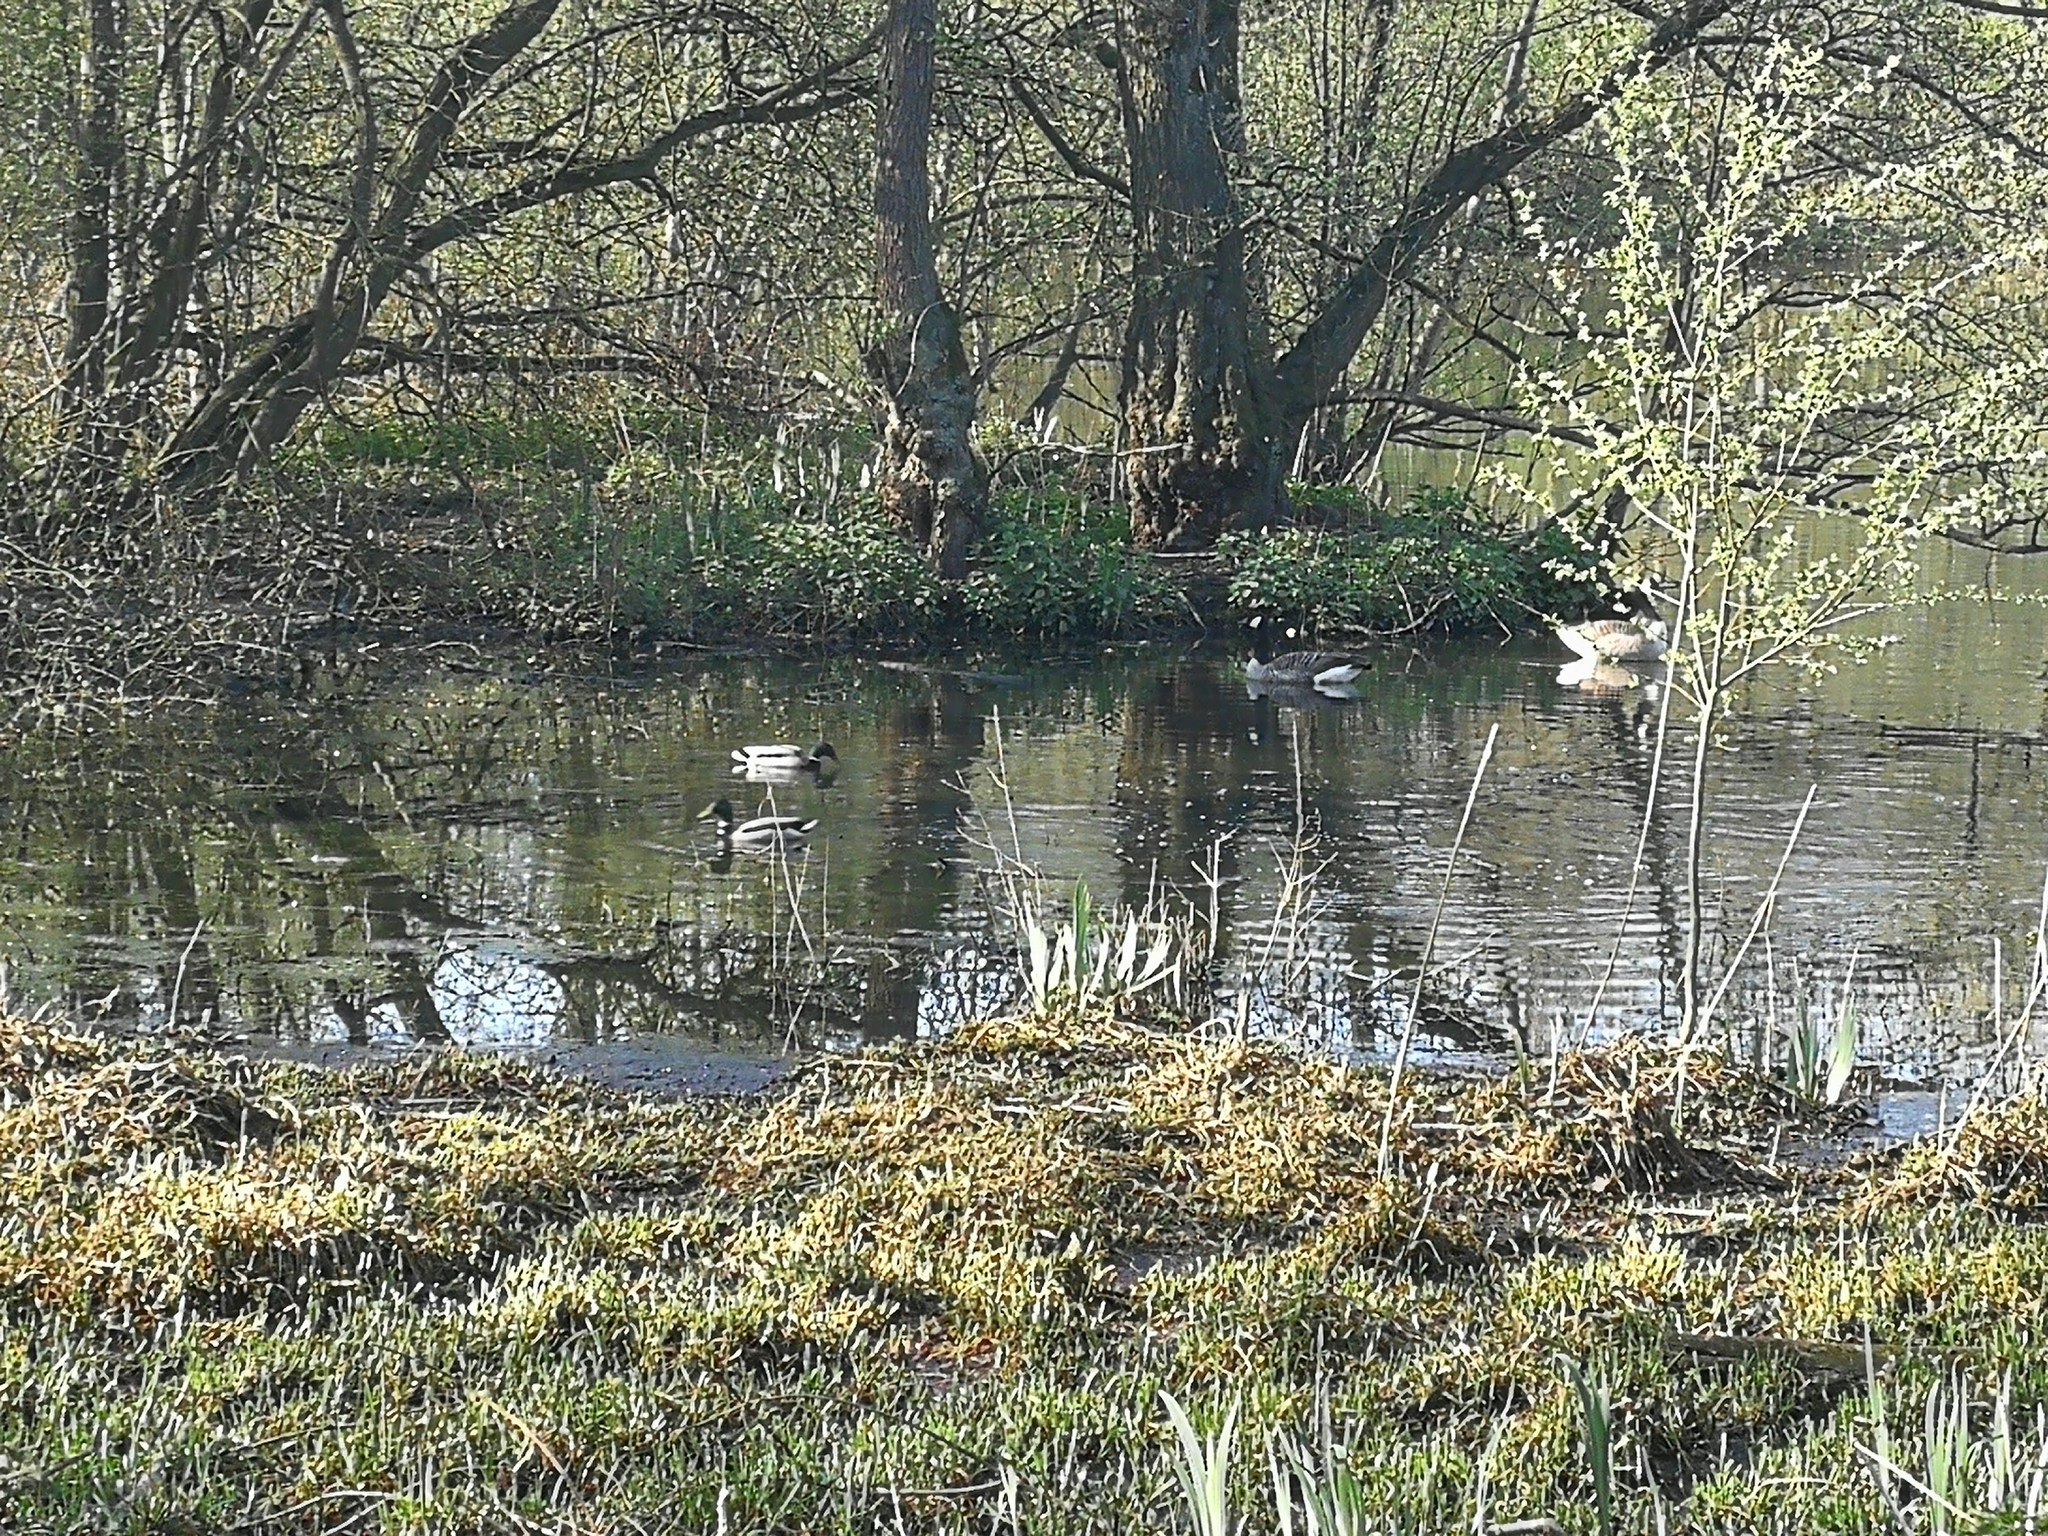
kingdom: Animalia
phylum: Chordata
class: Aves
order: Anseriformes
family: Anatidae
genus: Branta
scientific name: Branta canadensis
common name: Canada goose
